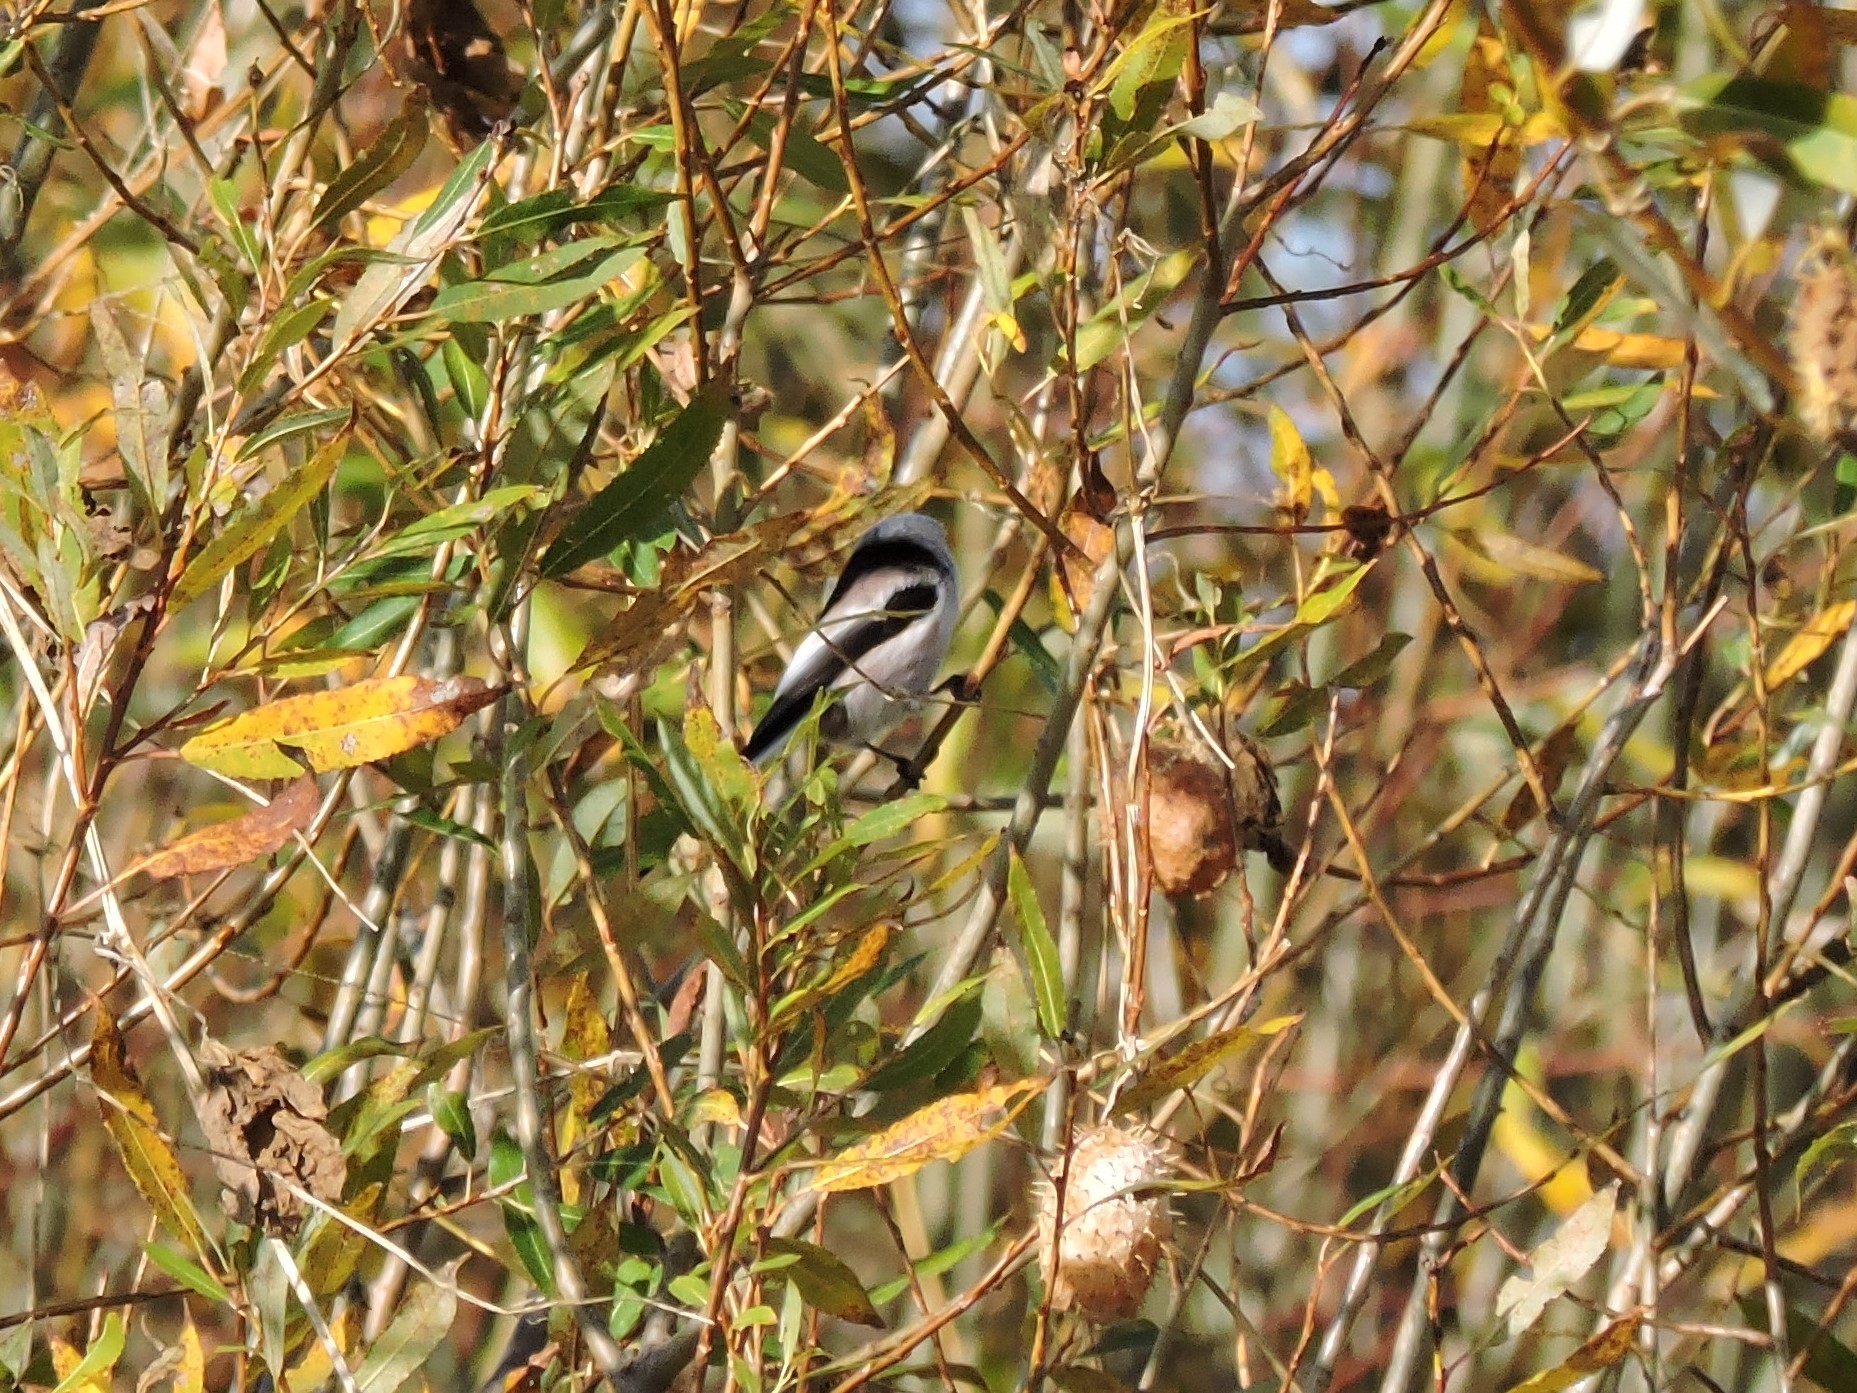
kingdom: Animalia
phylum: Chordata
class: Aves
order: Passeriformes
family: Aegithalidae
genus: Aegithalos
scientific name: Aegithalos caudatus
